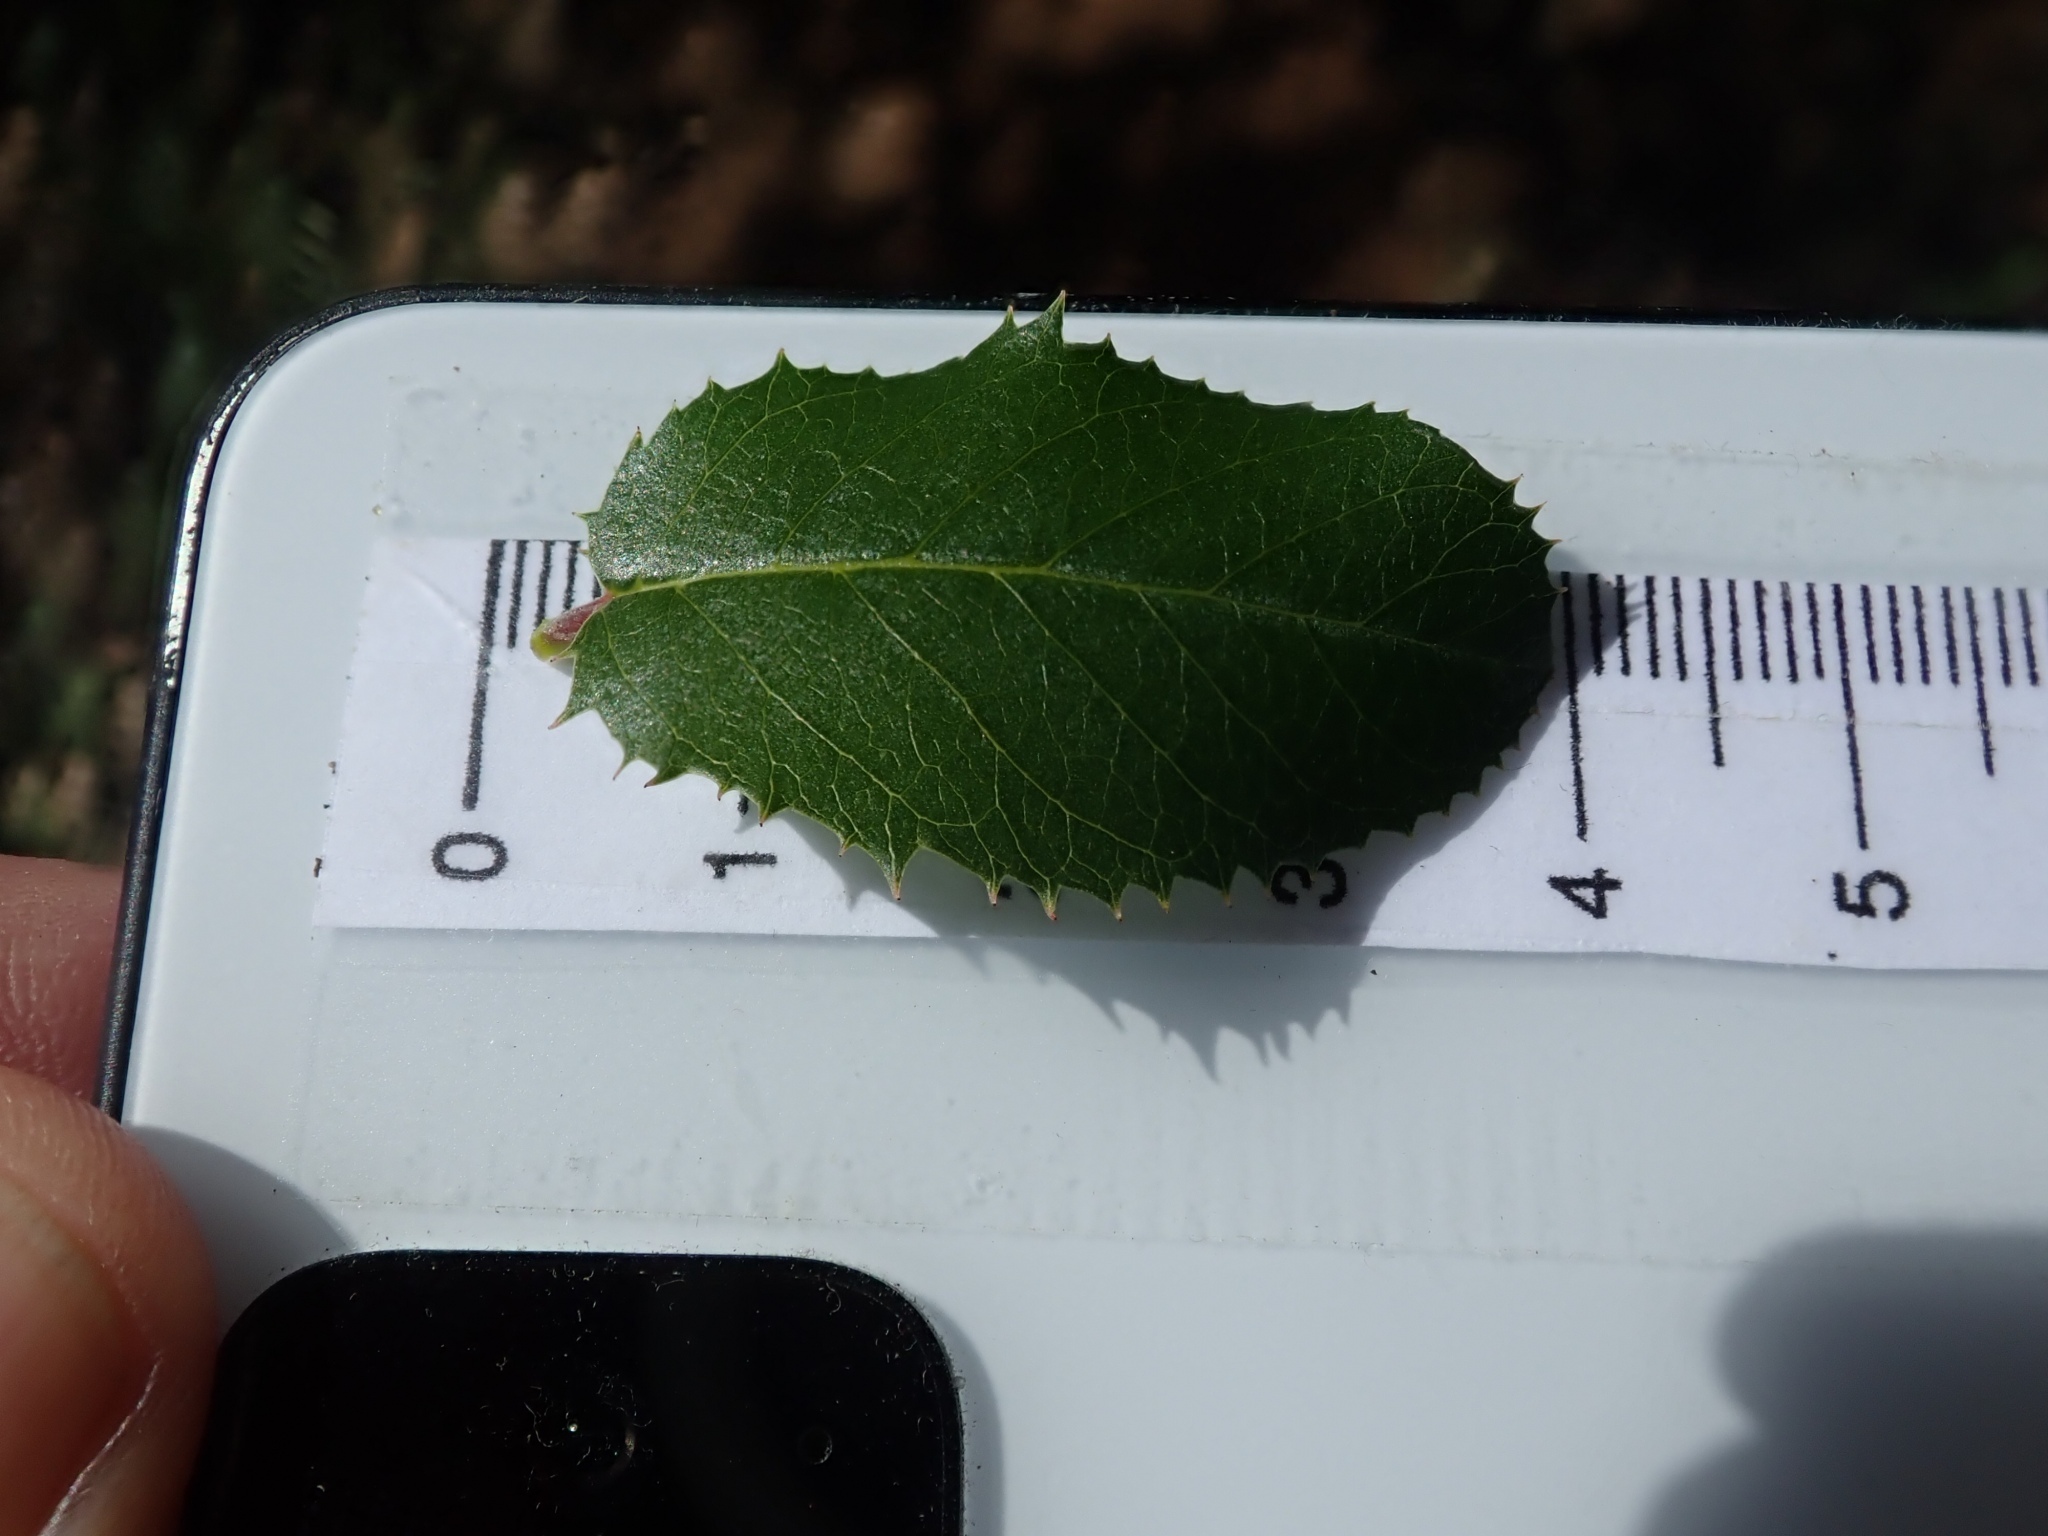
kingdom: Plantae
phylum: Tracheophyta
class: Magnoliopsida
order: Rosales
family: Rhamnaceae
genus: Endotropis
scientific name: Endotropis crocea
